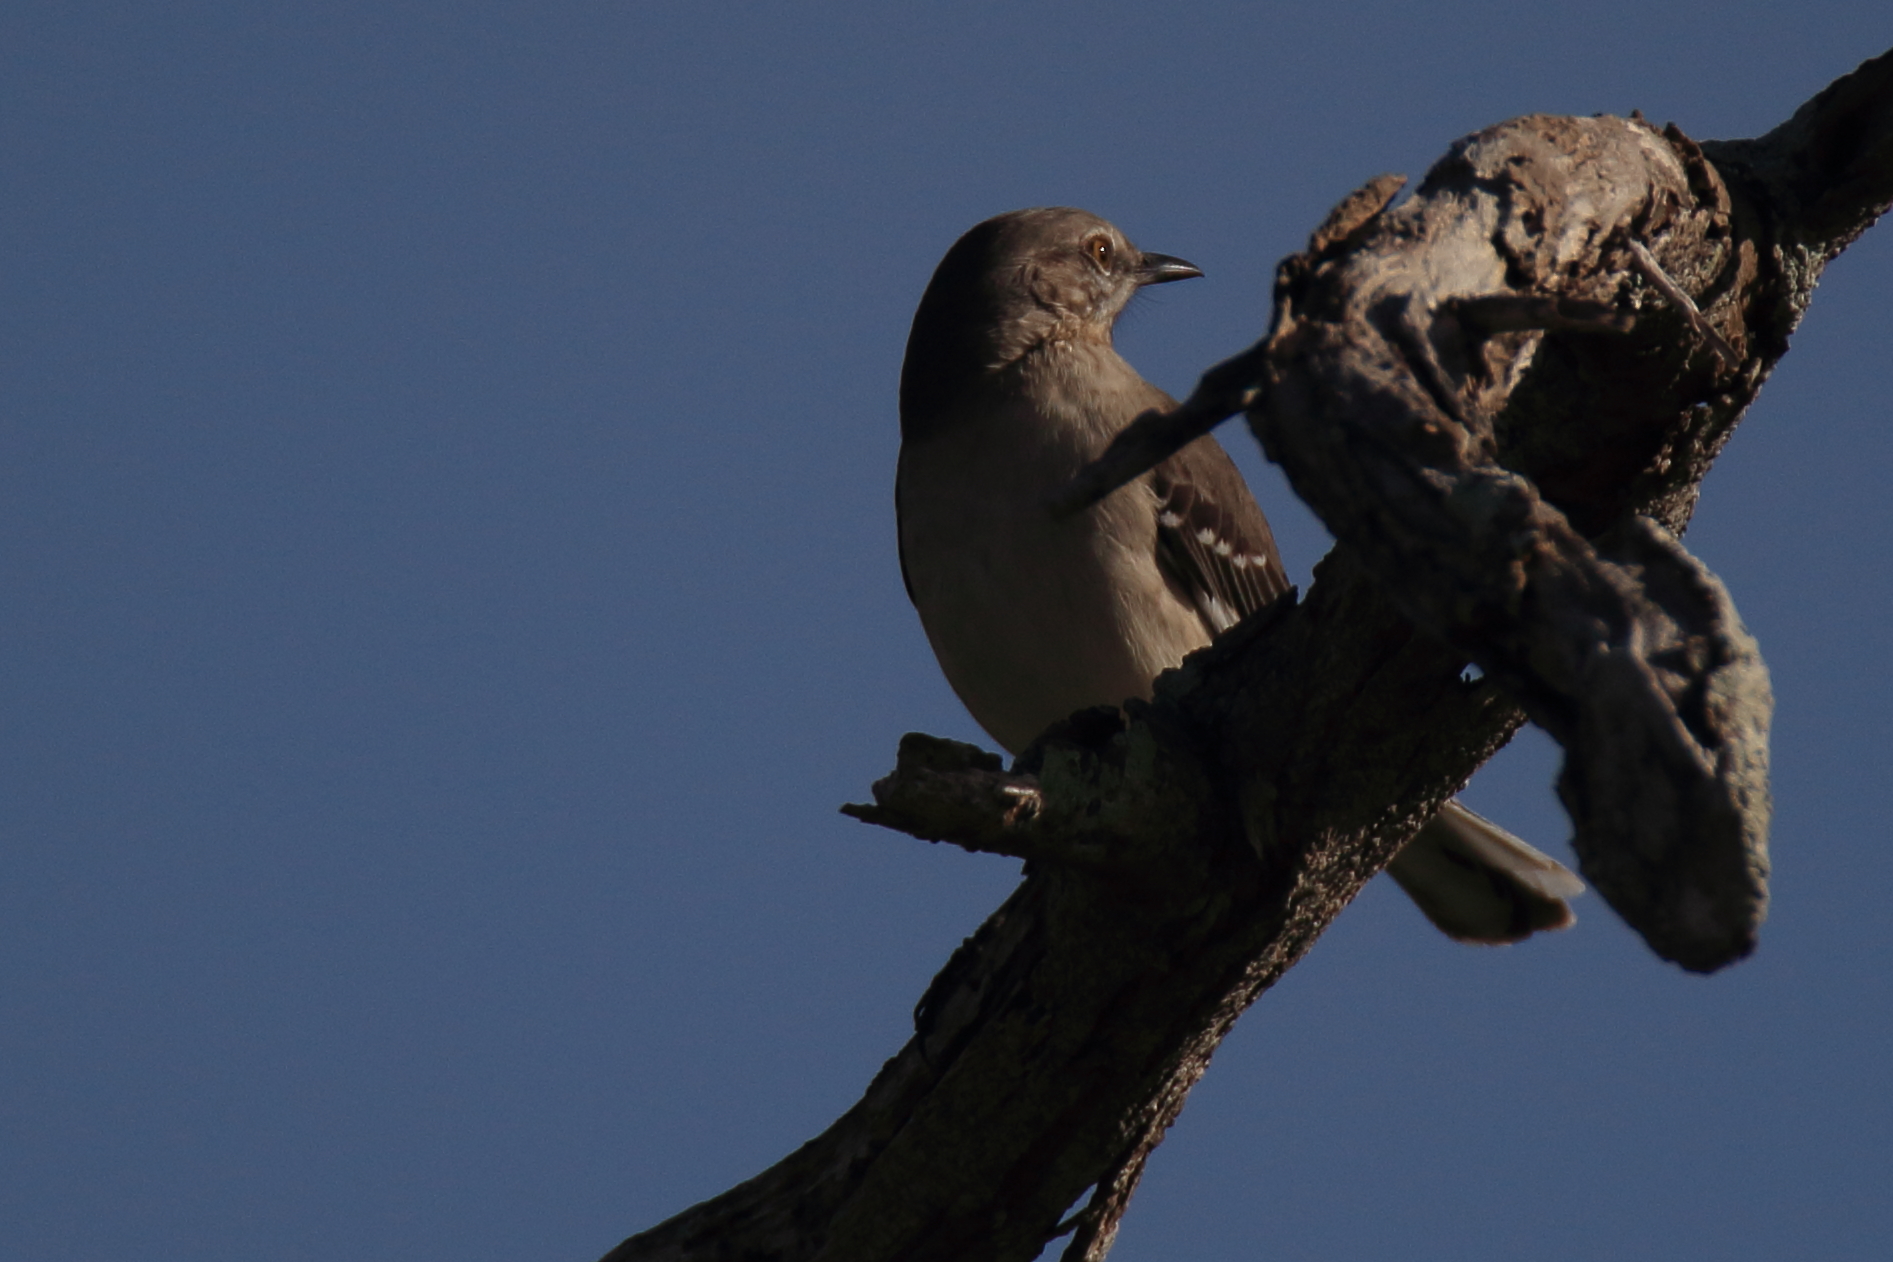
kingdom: Animalia
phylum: Chordata
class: Aves
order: Passeriformes
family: Mimidae
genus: Mimus
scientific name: Mimus polyglottos
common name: Northern mockingbird
